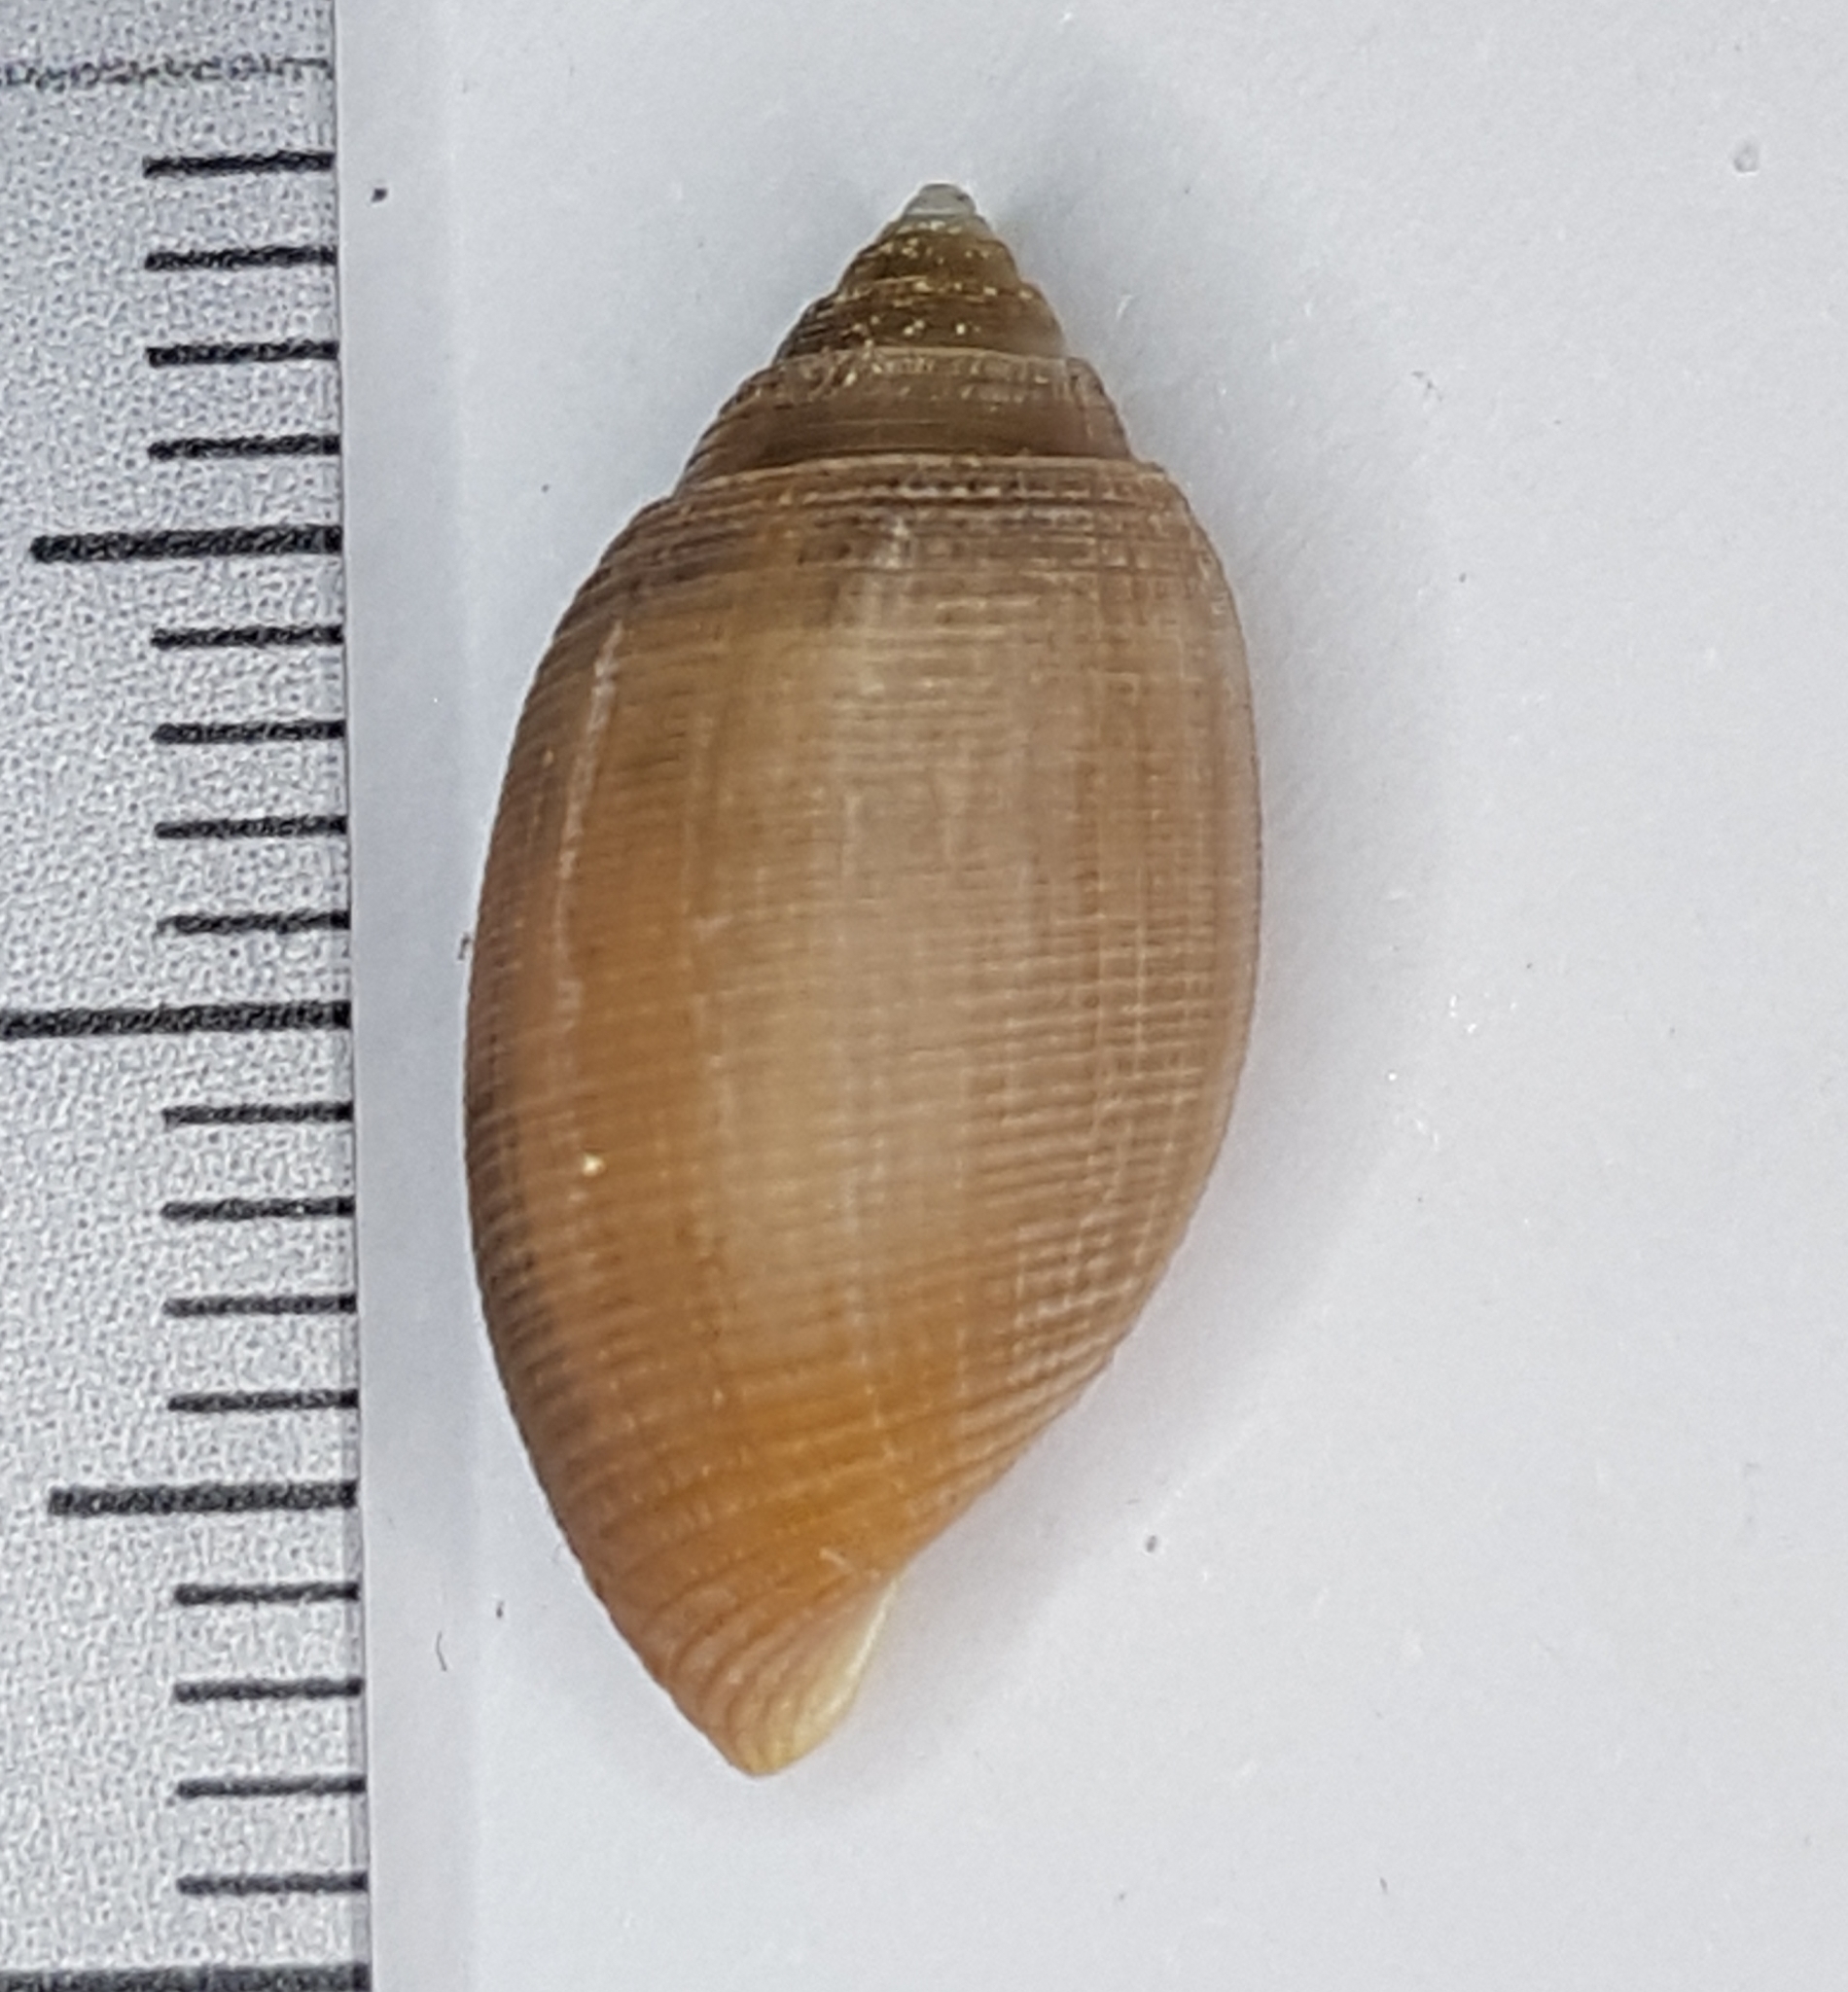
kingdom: Animalia
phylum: Mollusca
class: Gastropoda
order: Cephalaspidea
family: Acteonidae
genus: Acteon
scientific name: Acteon tornatilis
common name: European acteon
